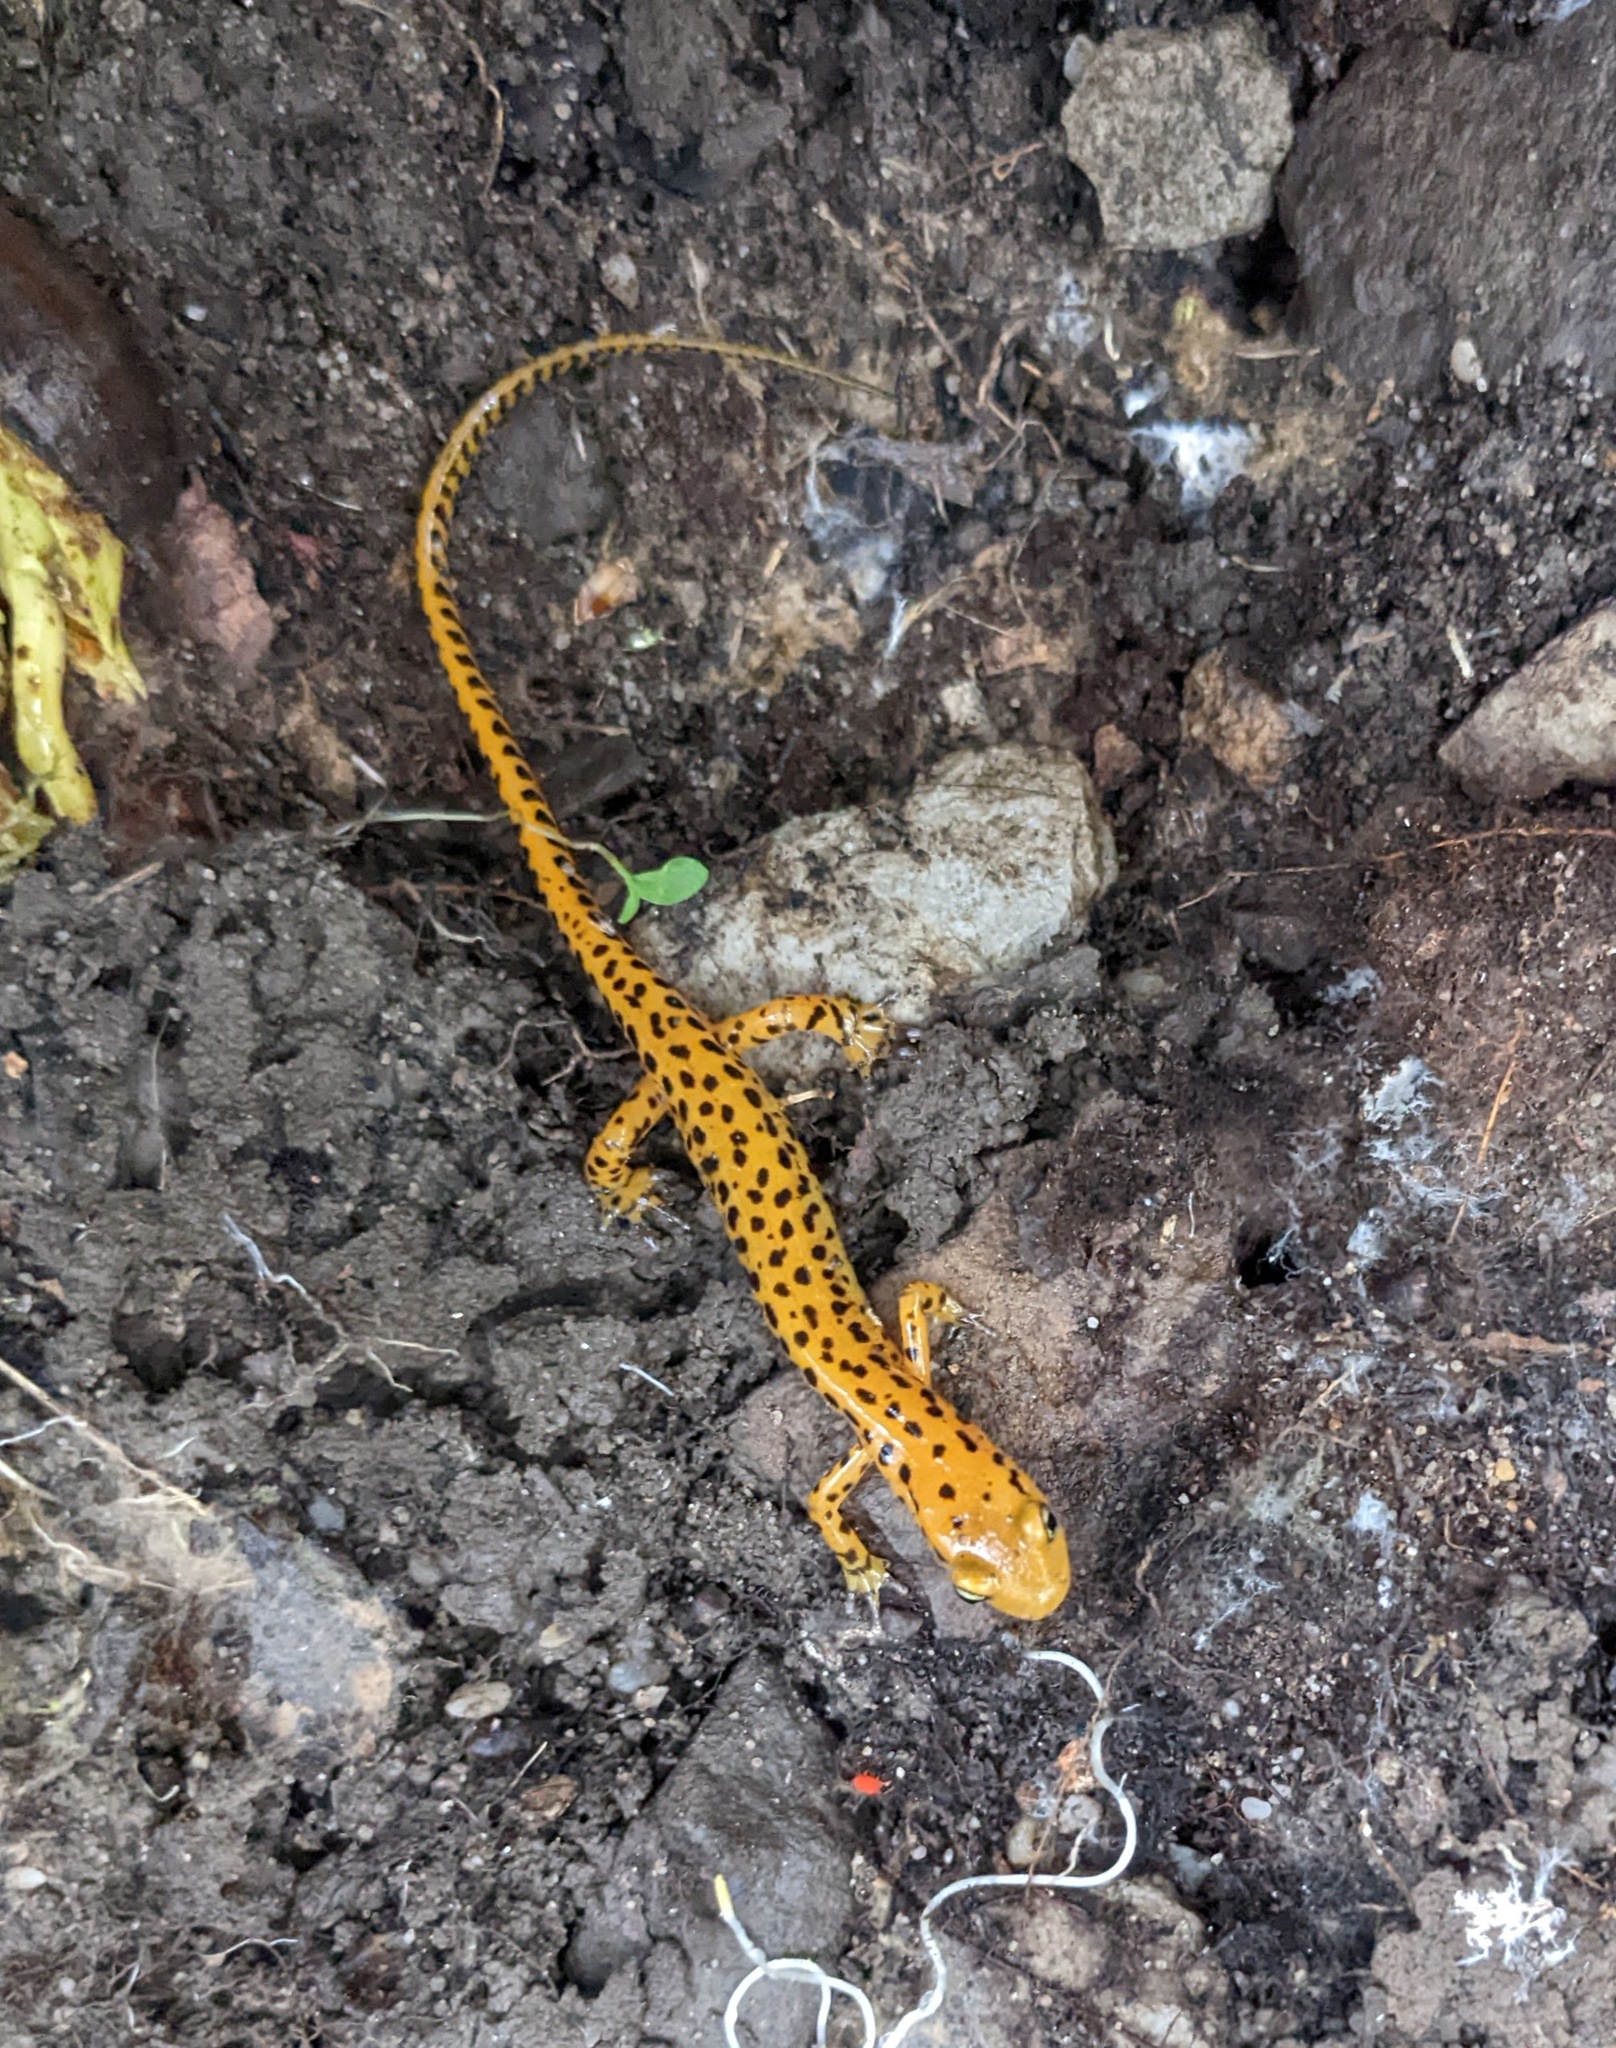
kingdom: Animalia
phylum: Chordata
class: Amphibia
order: Caudata
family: Plethodontidae
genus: Eurycea
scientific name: Eurycea longicauda
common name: Long-tailed salamander
